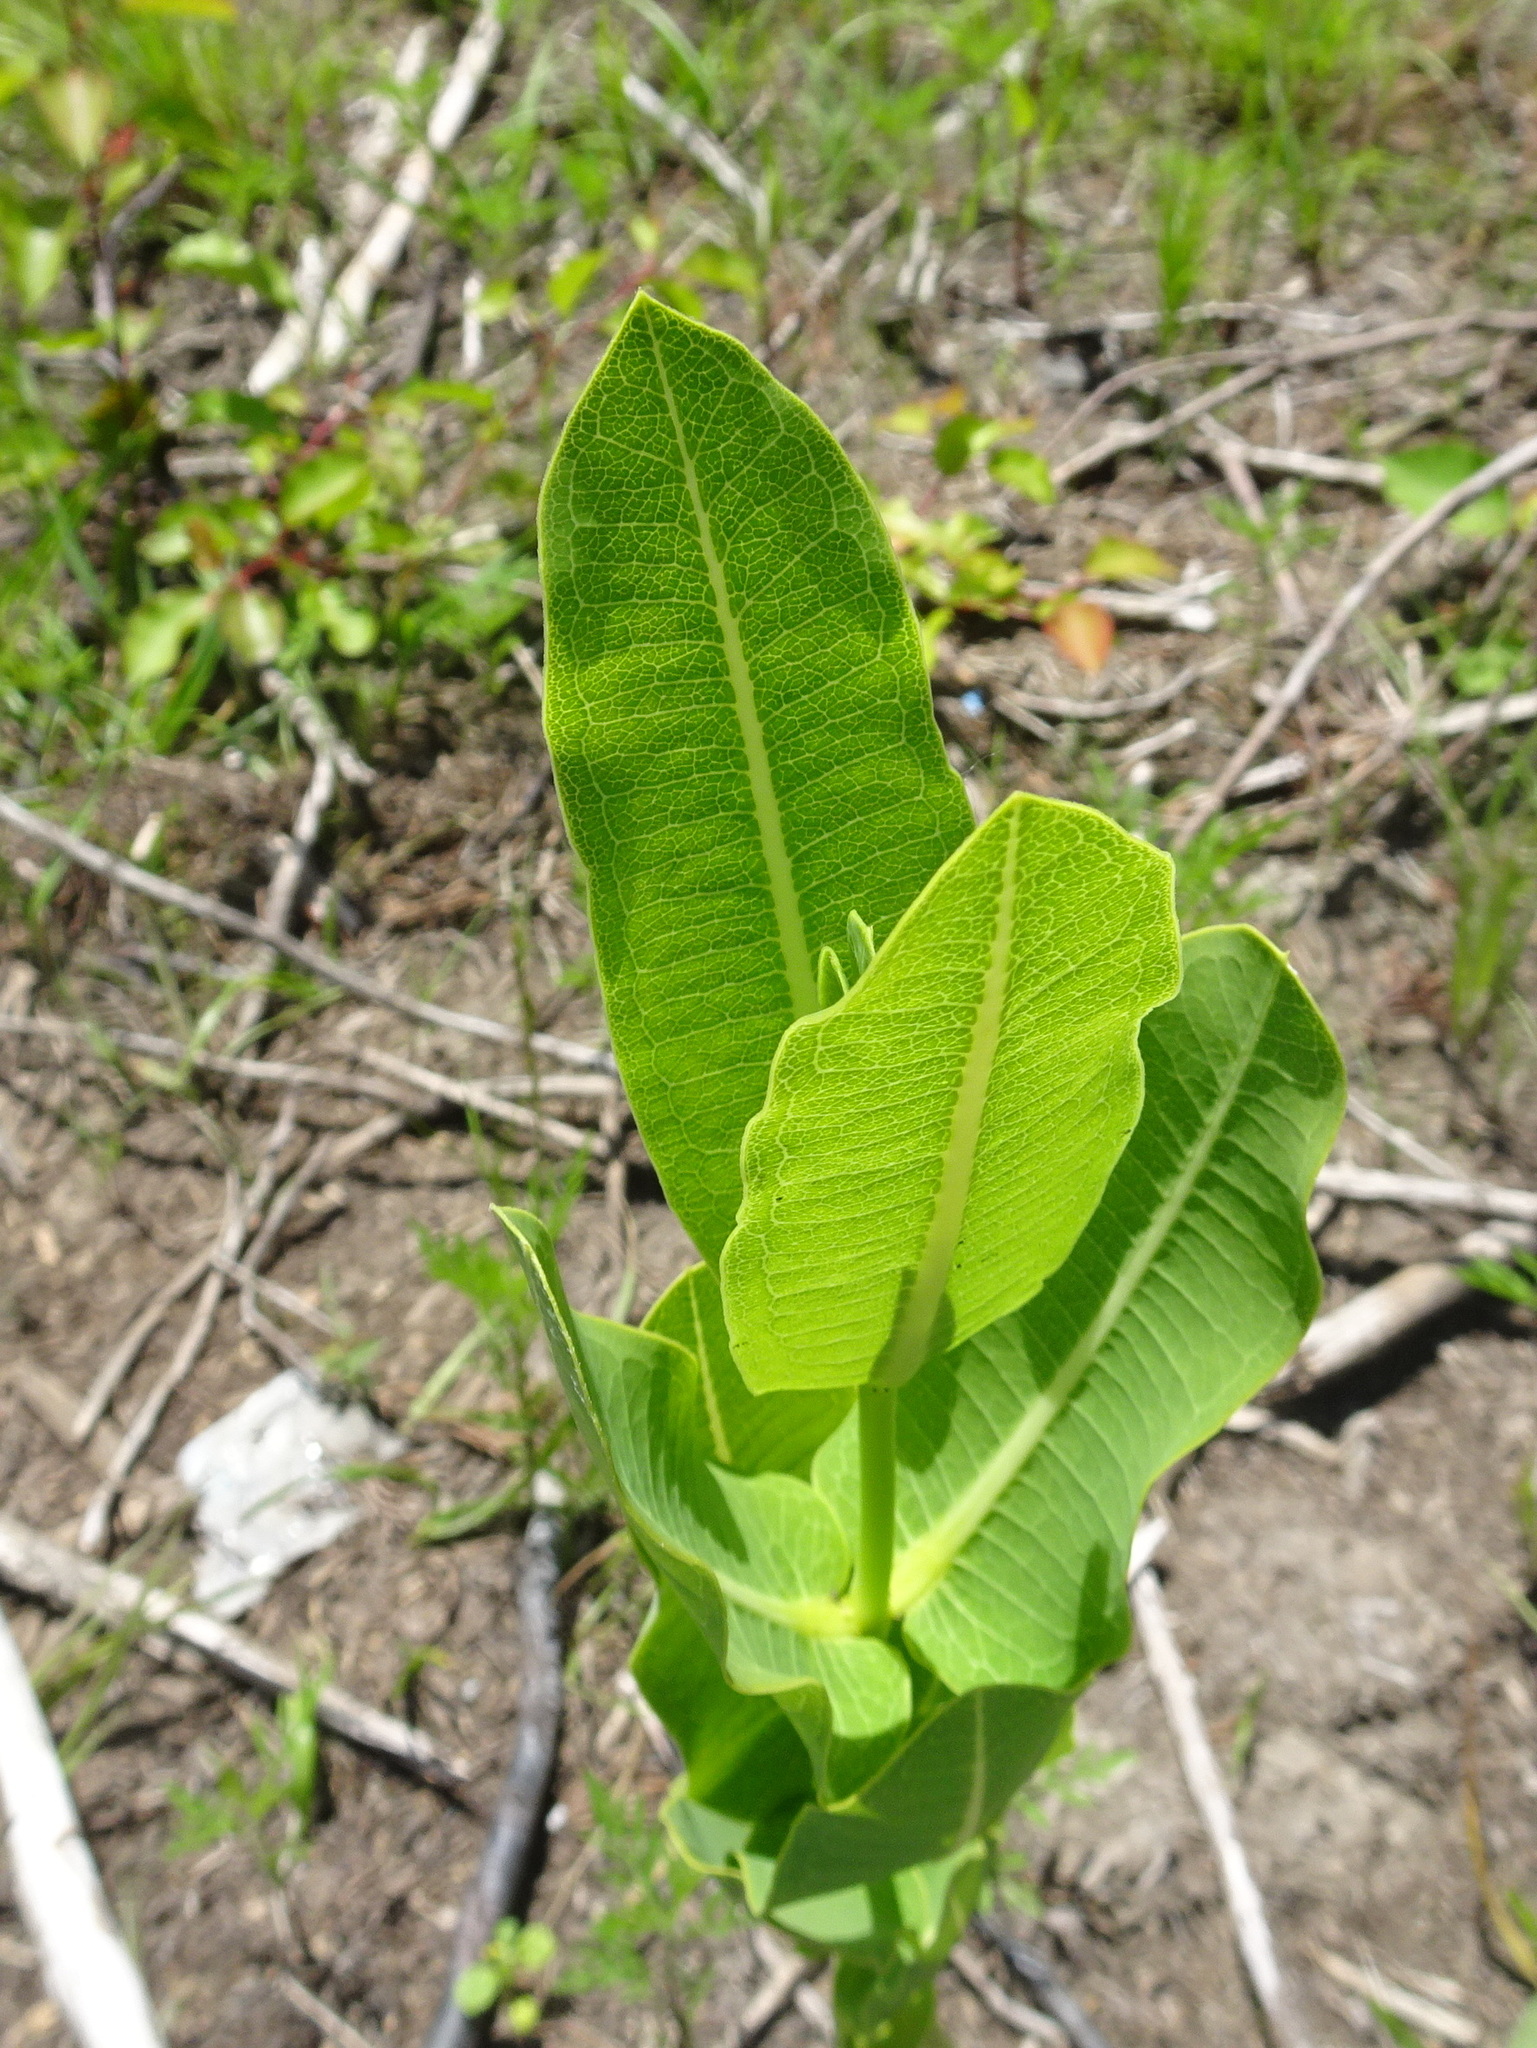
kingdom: Plantae
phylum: Tracheophyta
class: Magnoliopsida
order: Gentianales
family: Apocynaceae
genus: Asclepias
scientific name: Asclepias sullivantii
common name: Prairie milkweed
